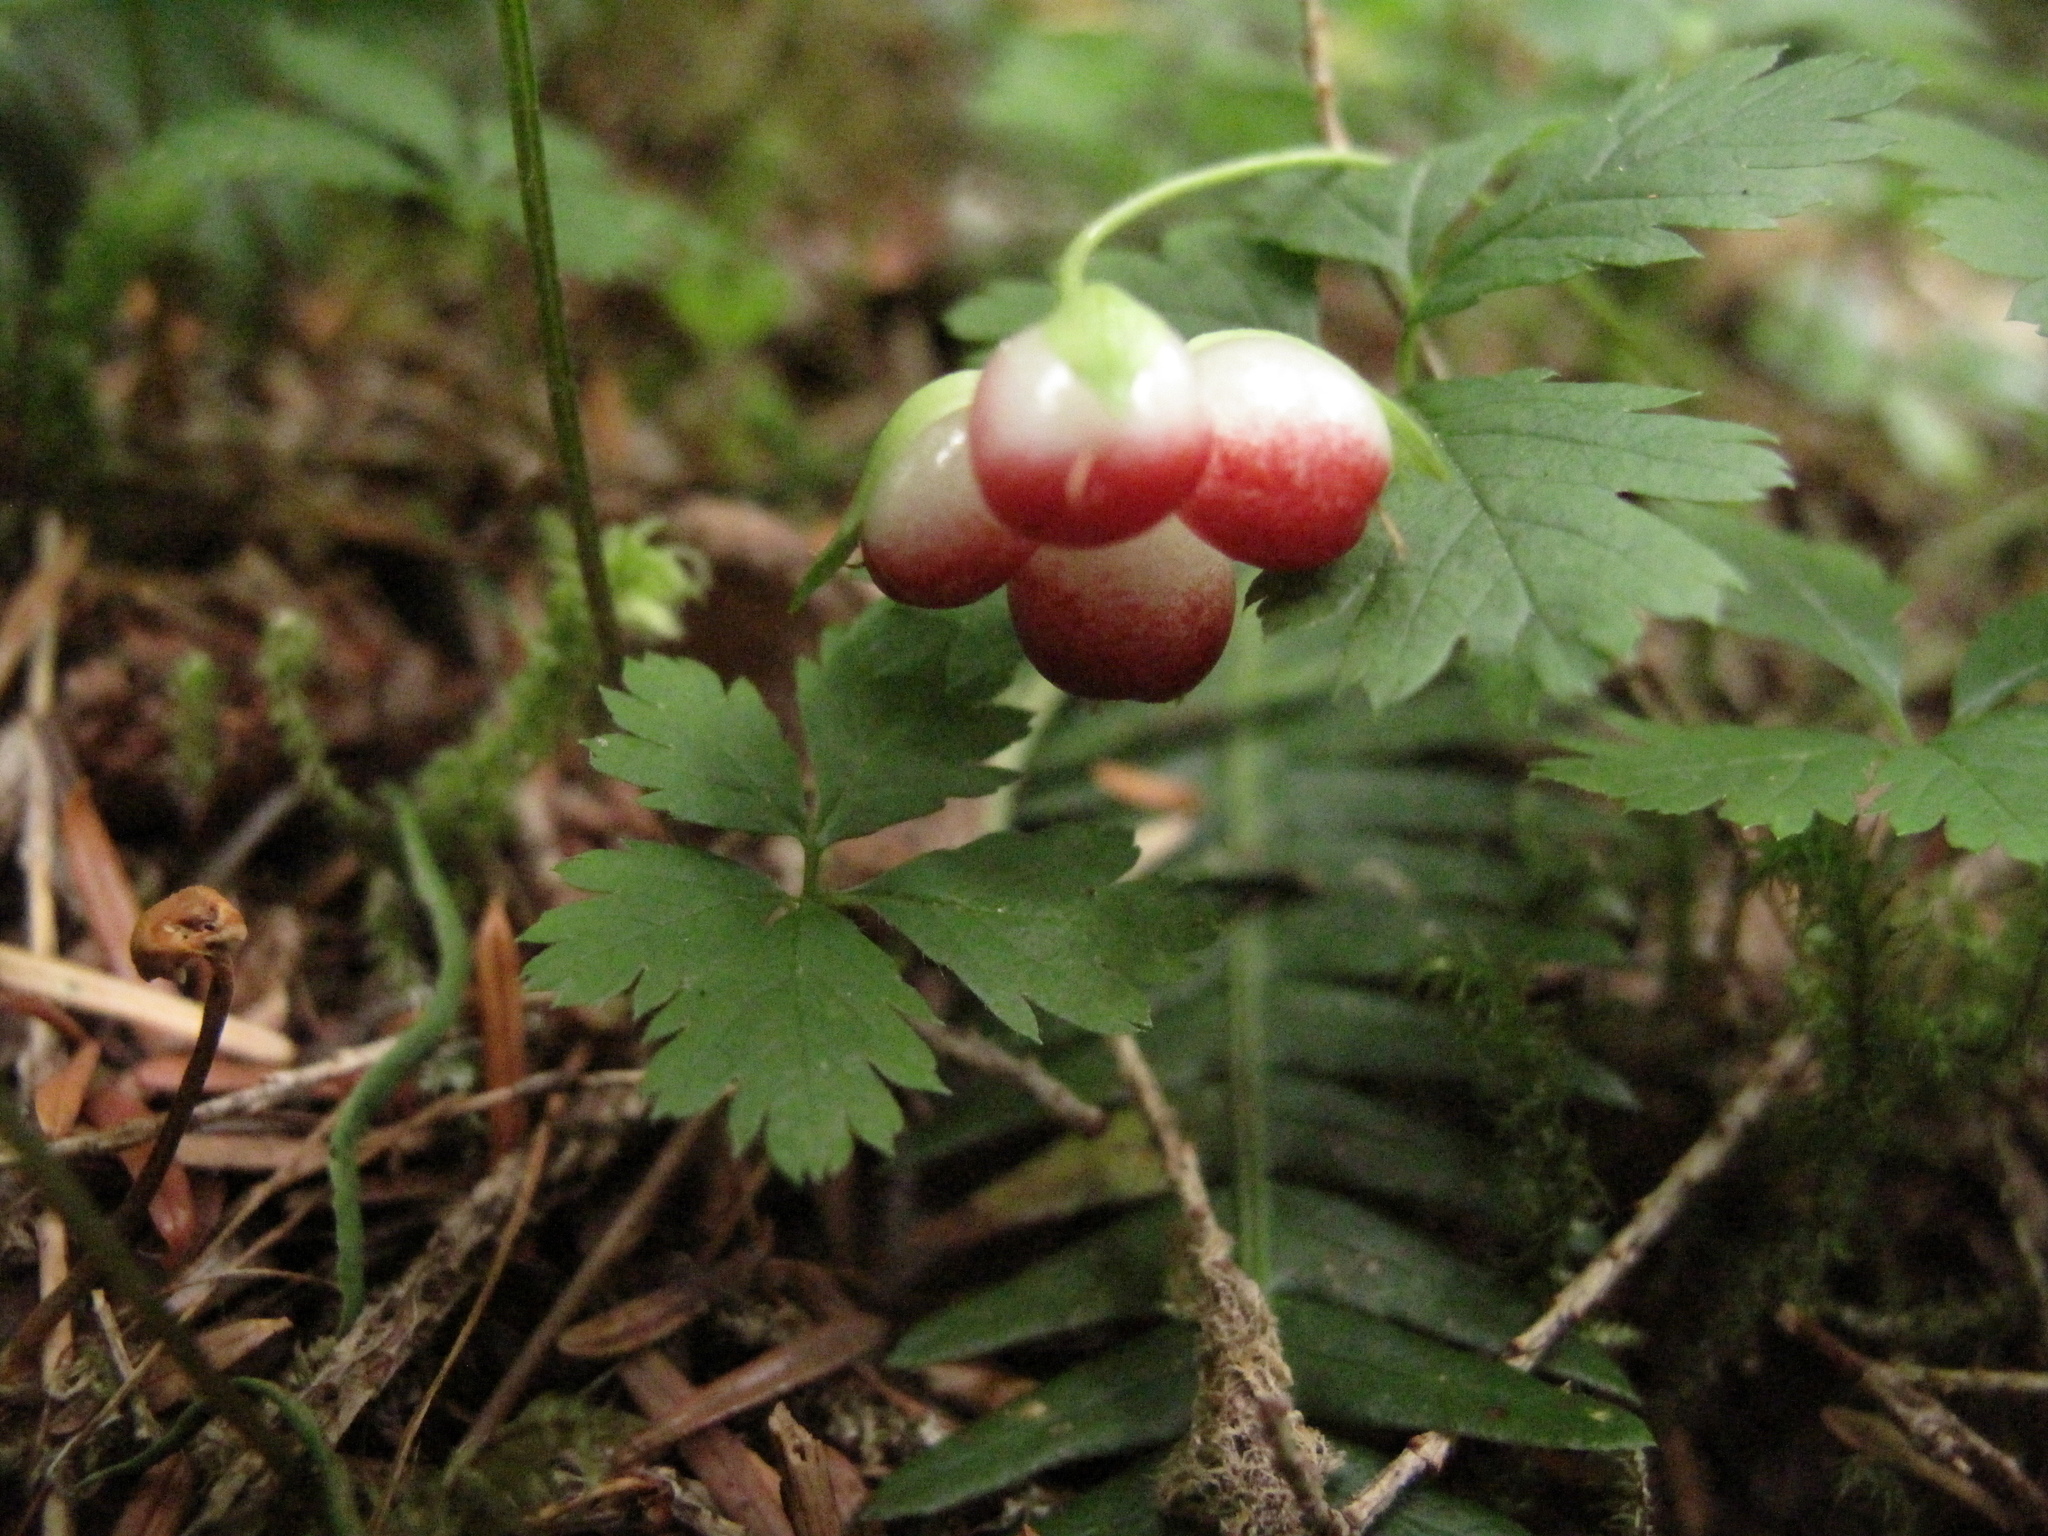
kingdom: Plantae
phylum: Tracheophyta
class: Magnoliopsida
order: Rosales
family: Rosaceae
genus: Rubus
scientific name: Rubus pedatus
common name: Creeping raspberry
